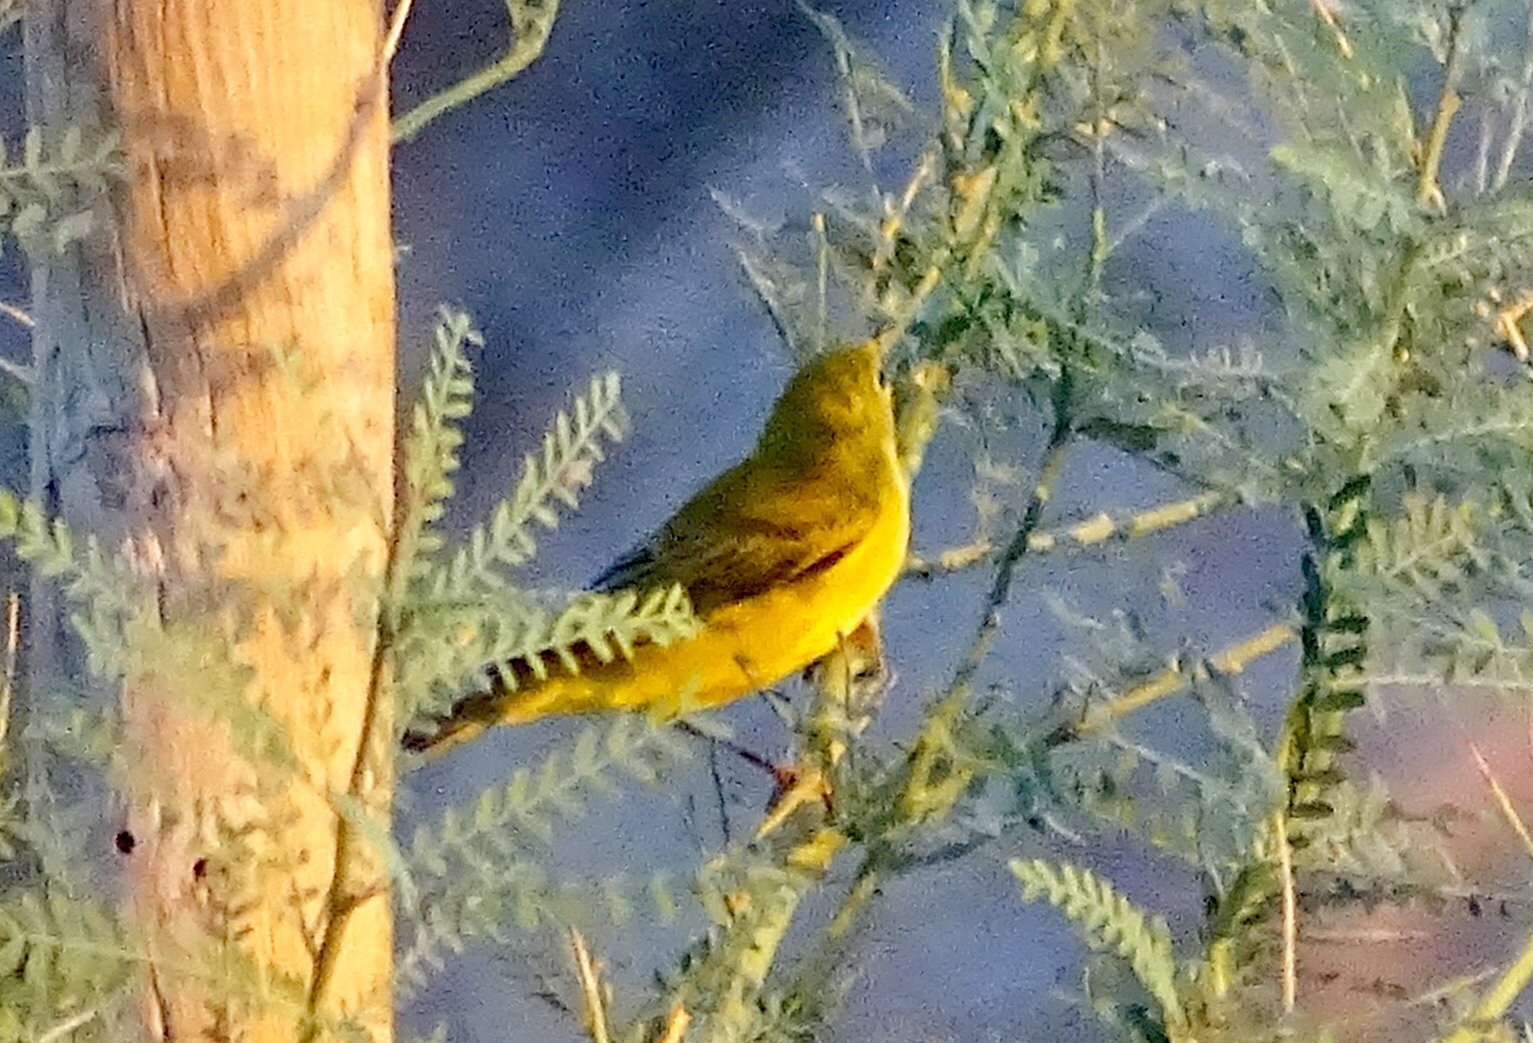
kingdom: Animalia
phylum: Chordata
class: Aves
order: Passeriformes
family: Parulidae
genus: Leiothlypis
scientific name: Leiothlypis ruficapilla
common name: Nashville warbler
